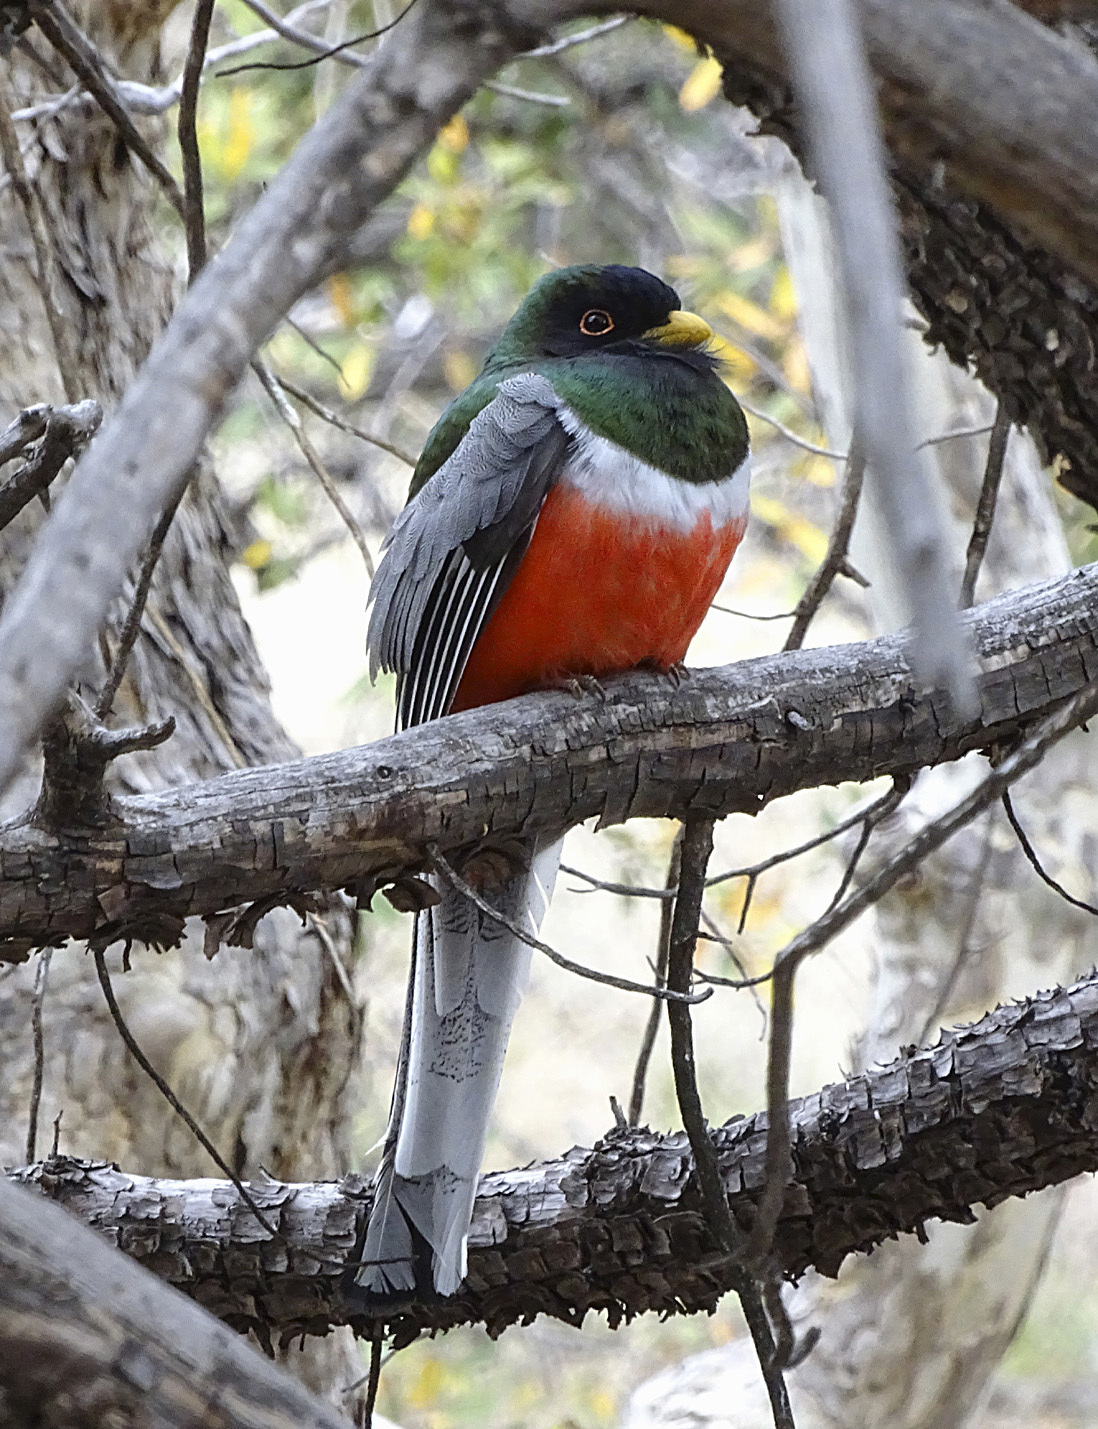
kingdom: Animalia
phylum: Chordata
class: Aves
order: Trogoniformes
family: Trogonidae
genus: Trogon
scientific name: Trogon elegans
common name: Elegant trogon
